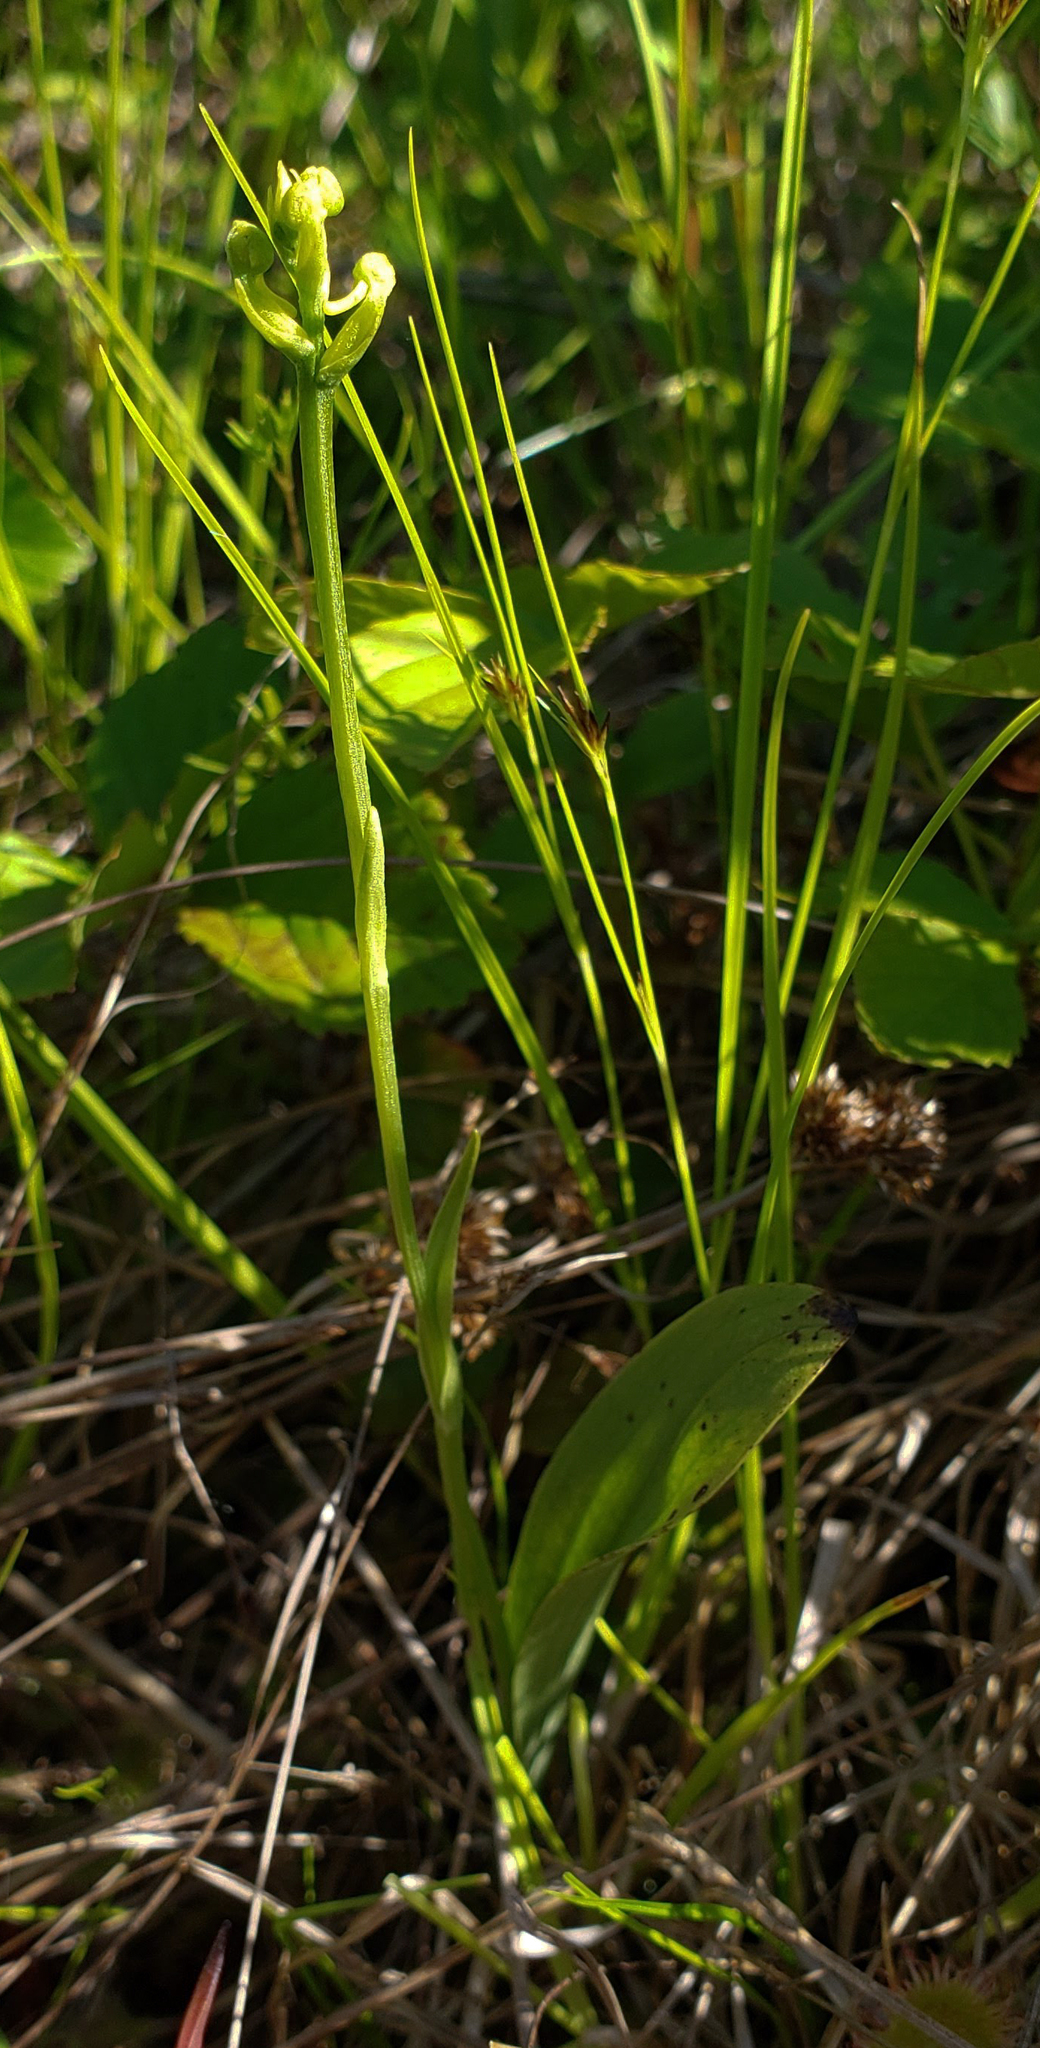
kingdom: Plantae
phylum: Tracheophyta
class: Liliopsida
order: Asparagales
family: Orchidaceae
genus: Platanthera
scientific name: Platanthera clavellata
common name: Club-spur orchid
